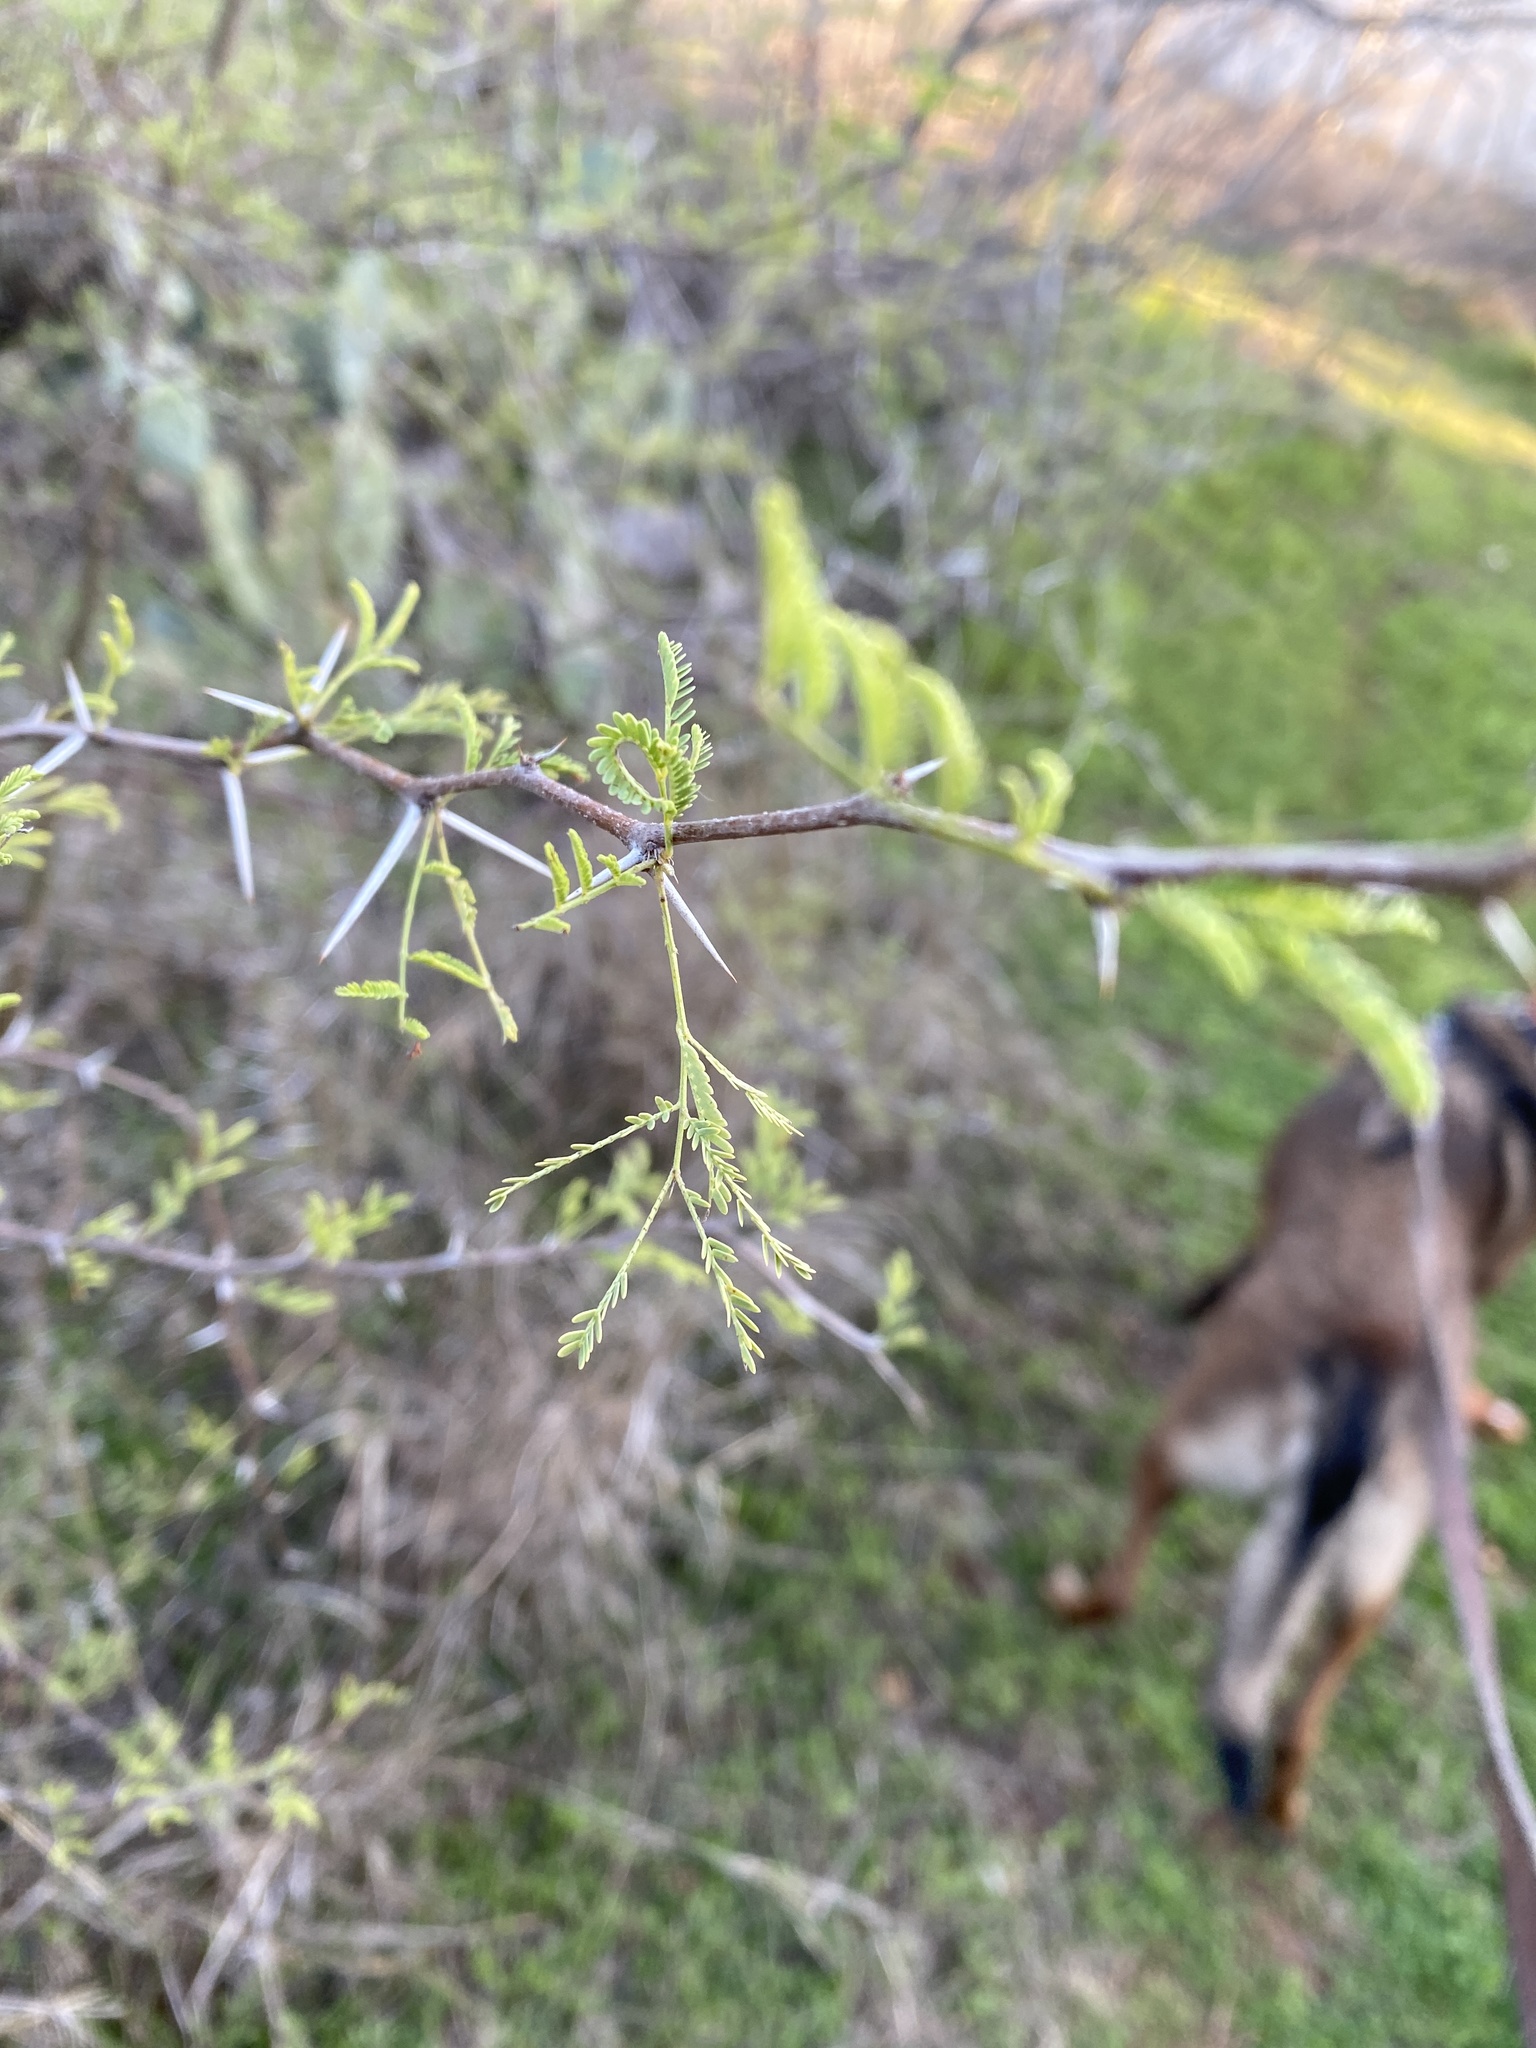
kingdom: Plantae
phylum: Tracheophyta
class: Magnoliopsida
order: Fabales
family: Fabaceae
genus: Vachellia
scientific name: Vachellia farnesiana
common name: Sweet acacia
